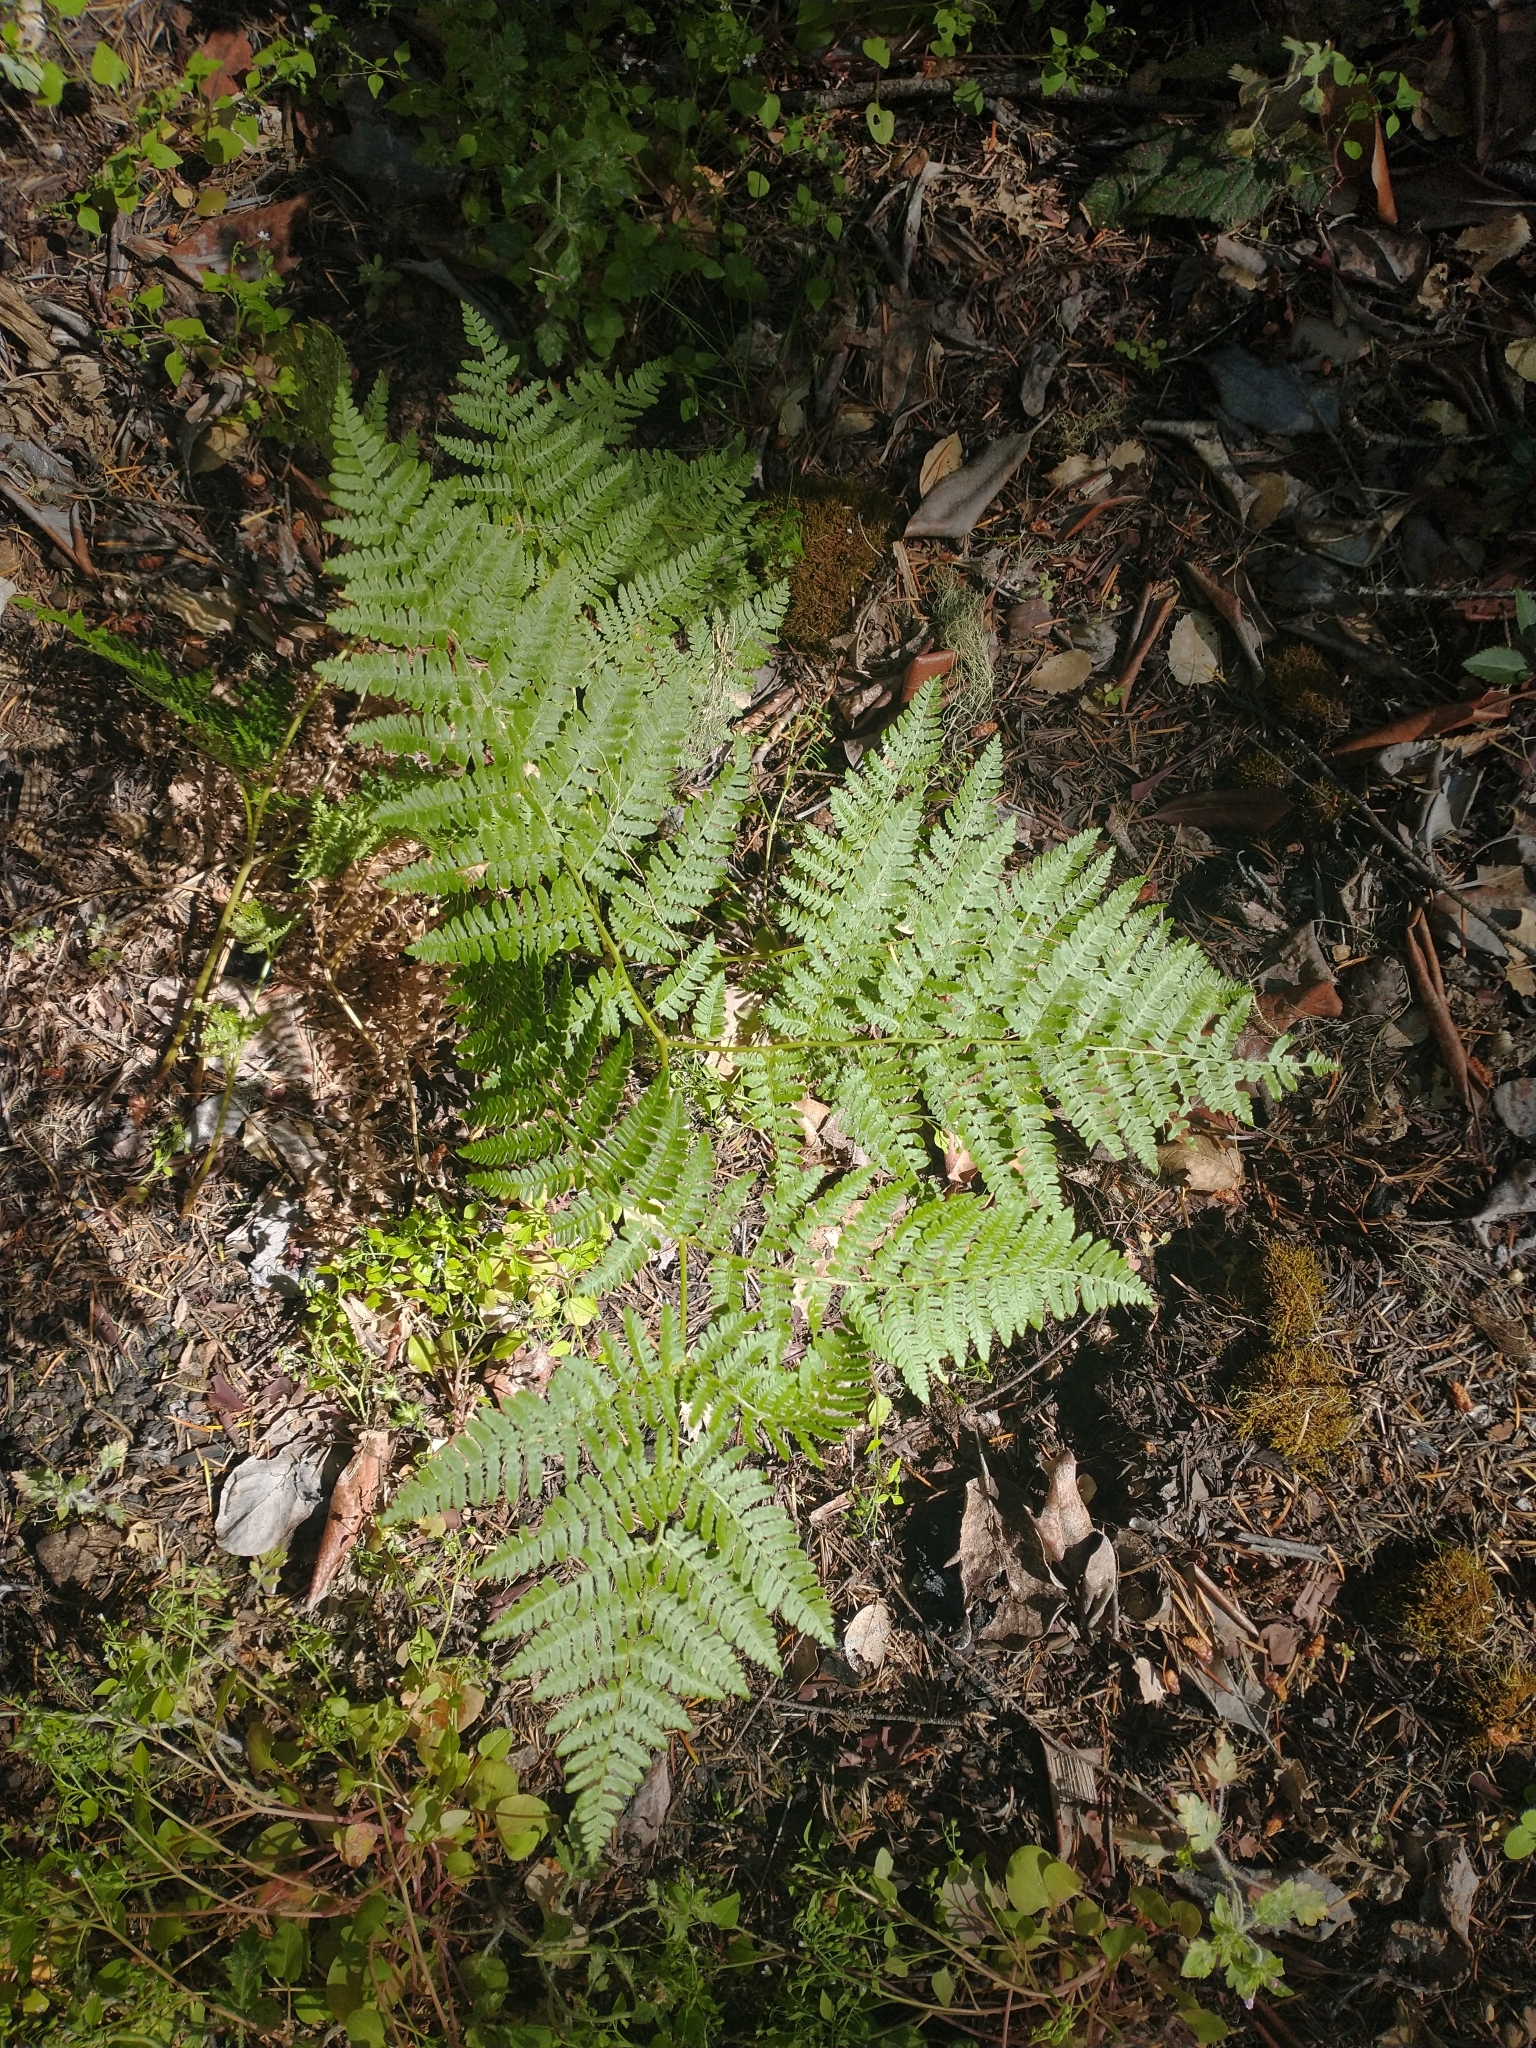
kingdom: Plantae
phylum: Tracheophyta
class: Polypodiopsida
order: Polypodiales
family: Dennstaedtiaceae
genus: Pteridium
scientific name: Pteridium aquilinum
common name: Bracken
